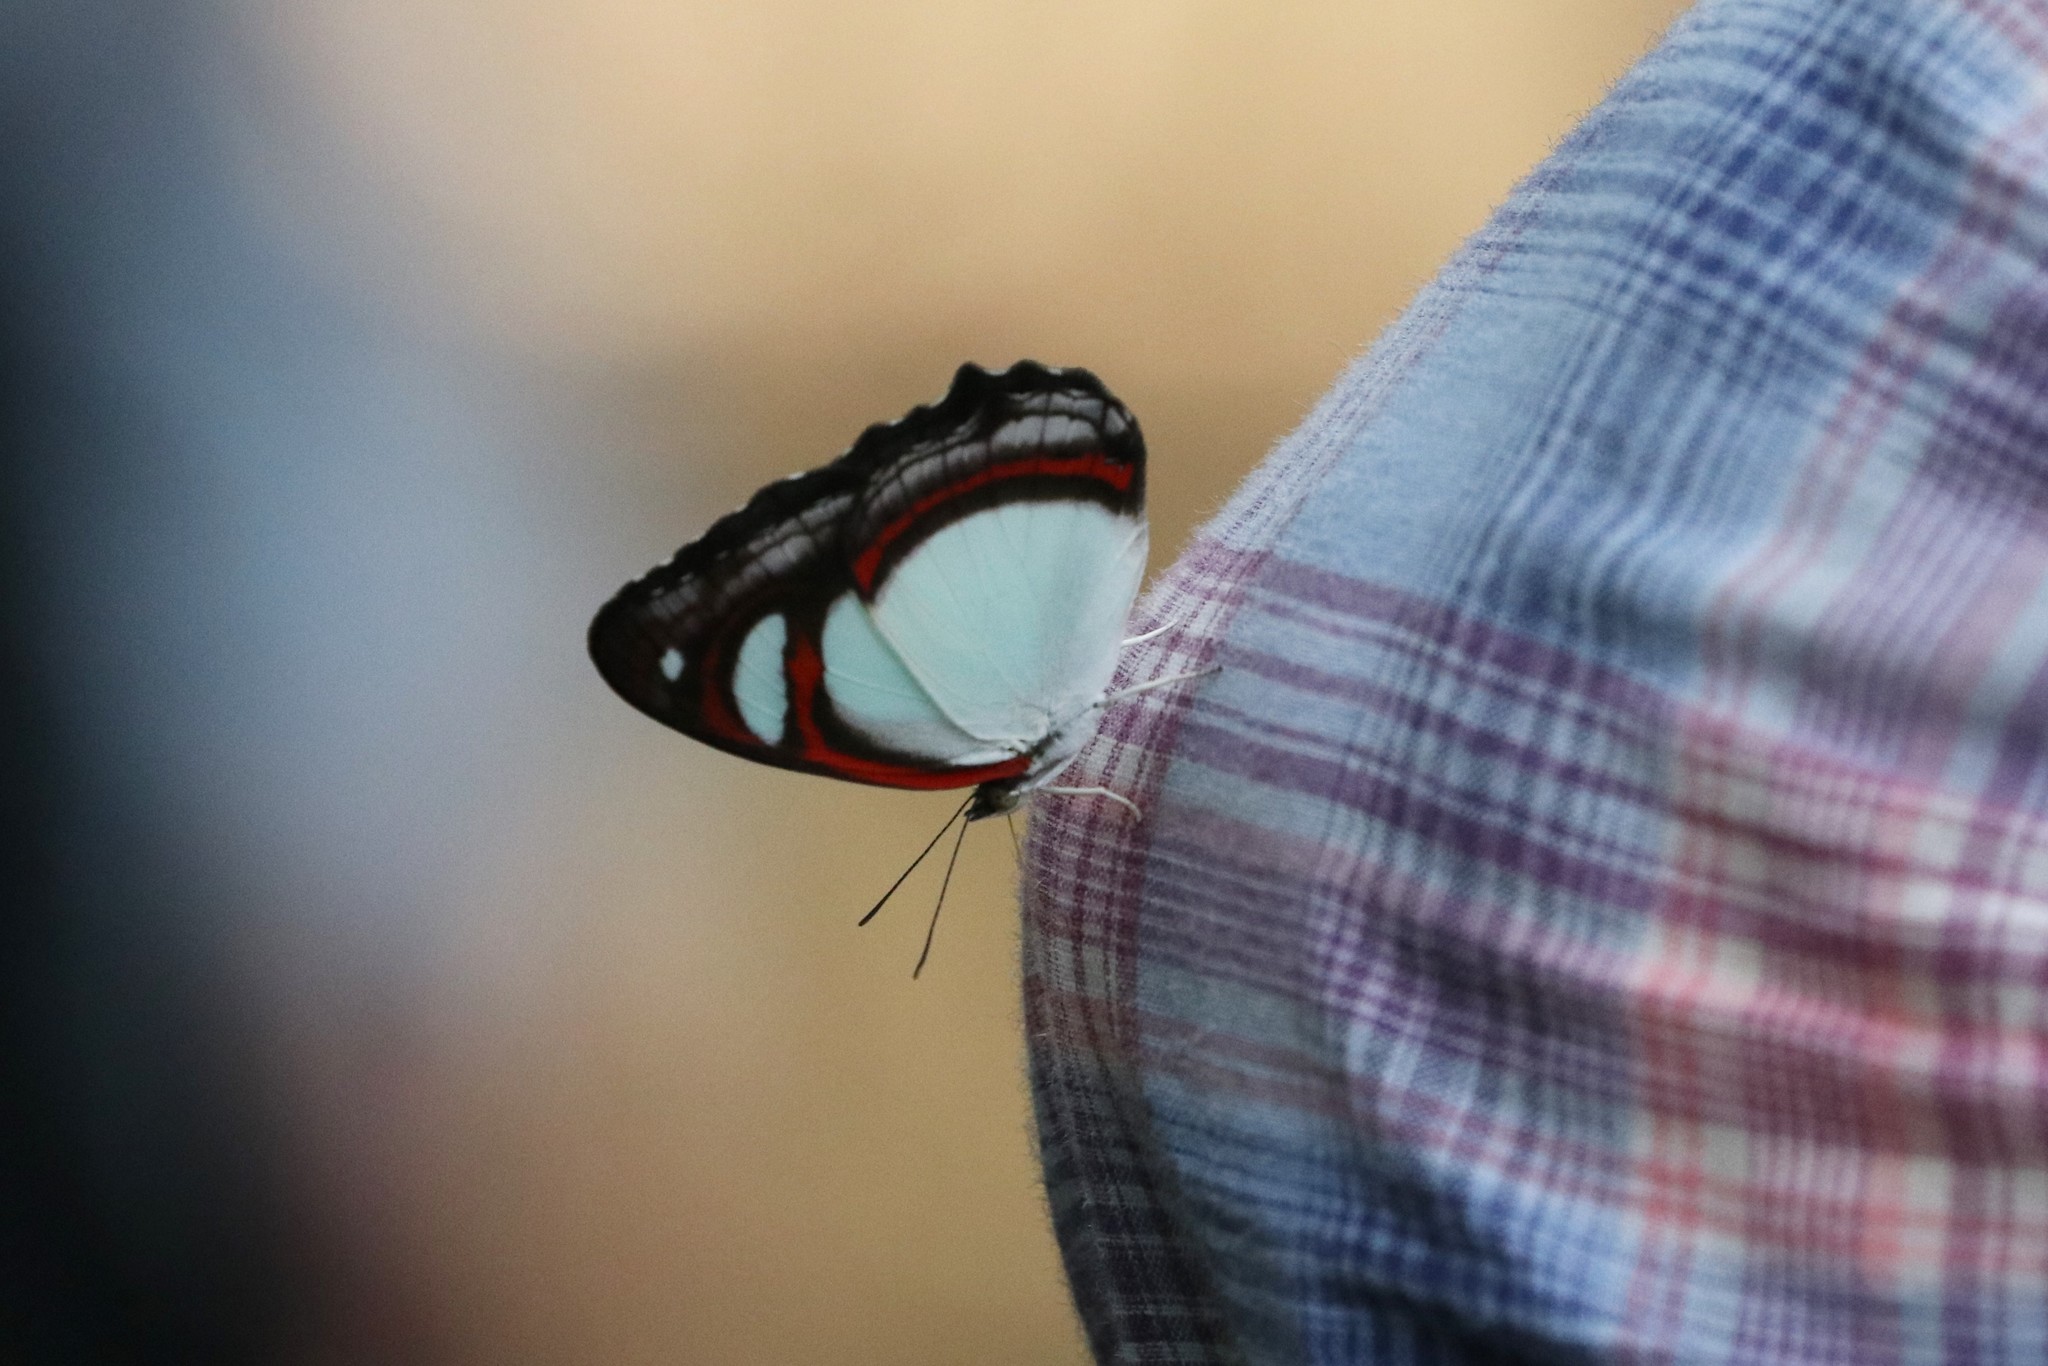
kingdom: Animalia
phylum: Arthropoda
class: Insecta
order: Lepidoptera
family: Nymphalidae
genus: Pyrrhogyra
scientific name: Pyrrhogyra crameri
